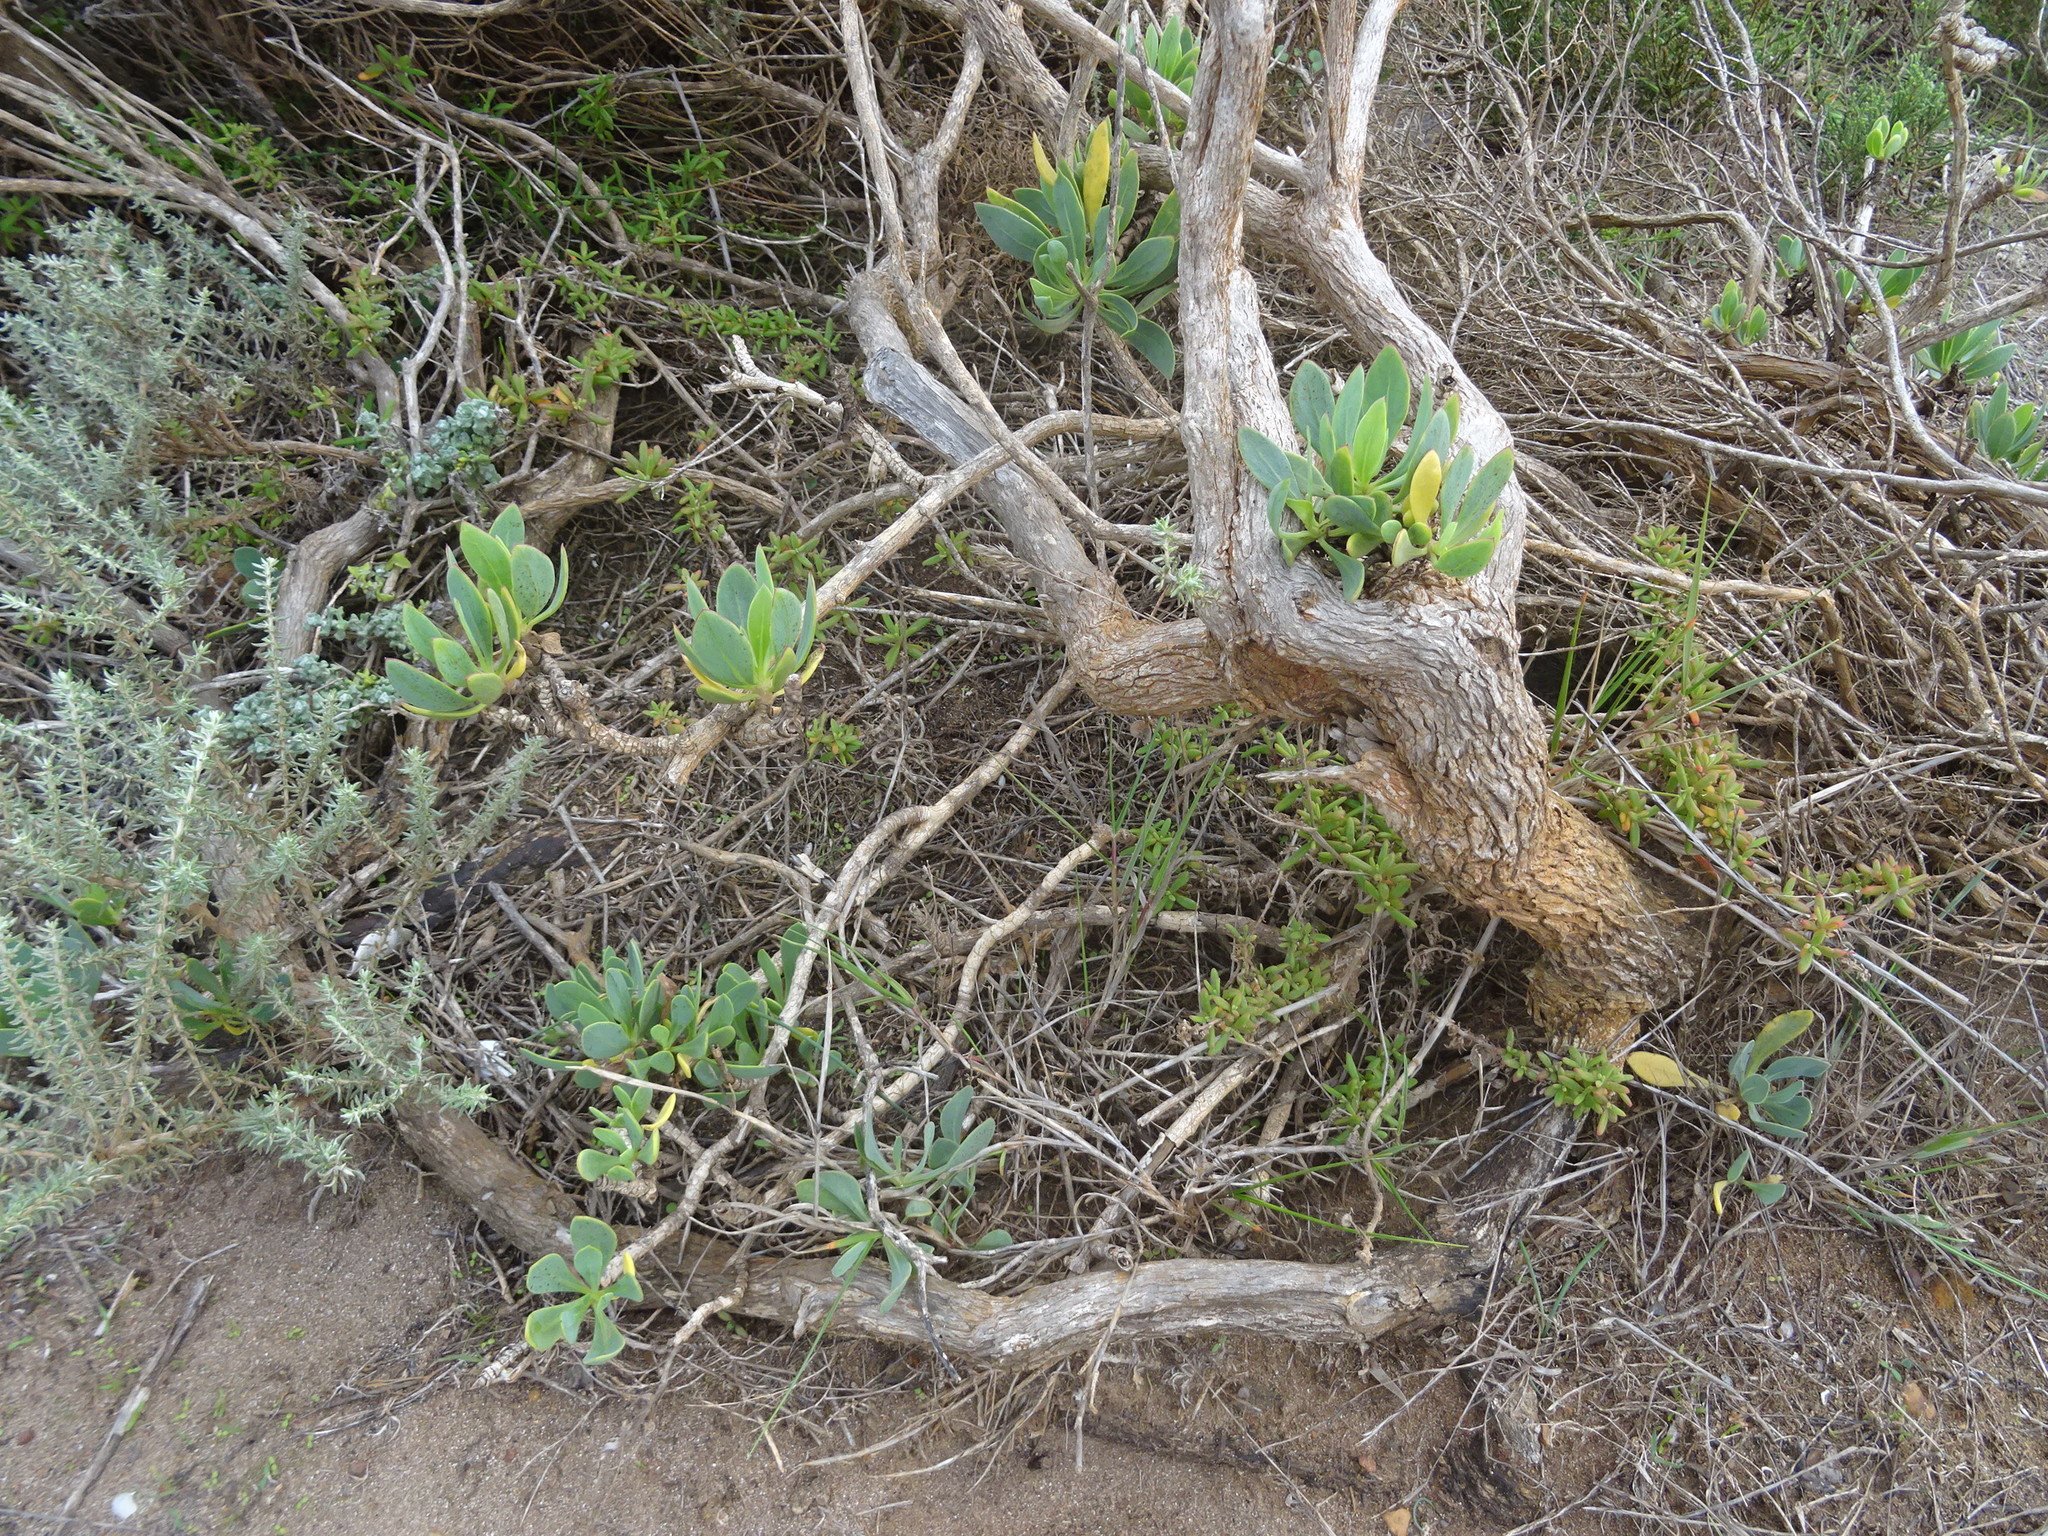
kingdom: Plantae
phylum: Tracheophyta
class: Magnoliopsida
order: Asterales
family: Asteraceae
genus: Othonna
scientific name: Othonna coronopifolia
